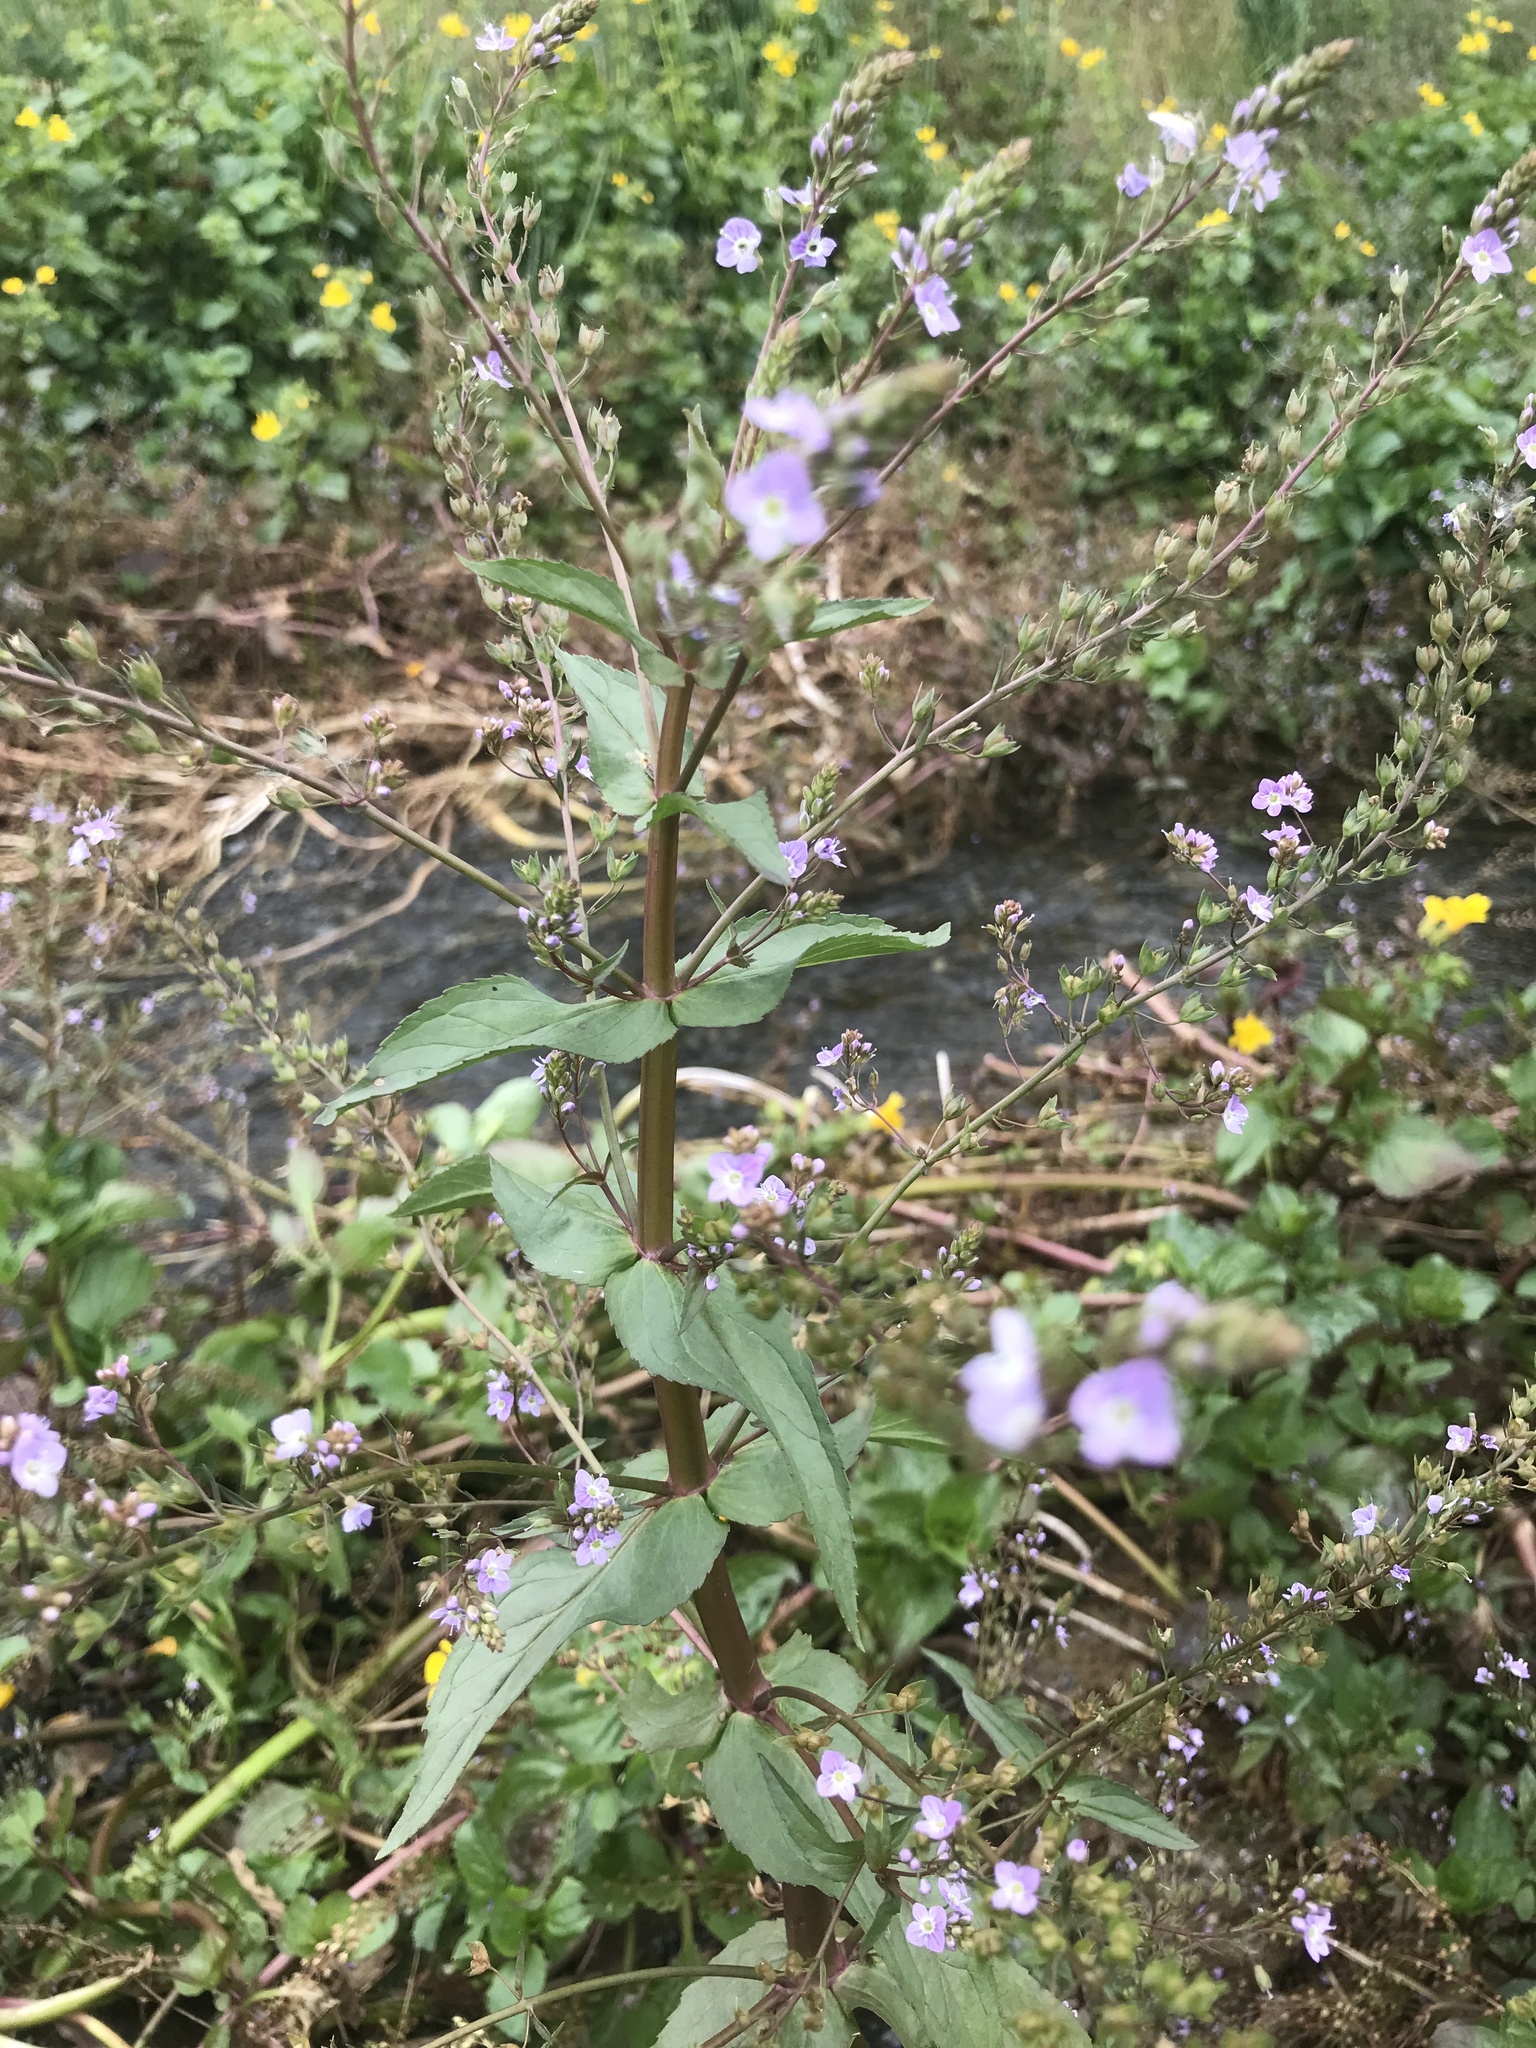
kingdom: Plantae
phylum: Tracheophyta
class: Magnoliopsida
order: Lamiales
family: Plantaginaceae
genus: Veronica
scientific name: Veronica anagallis-aquatica
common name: Water speedwell
